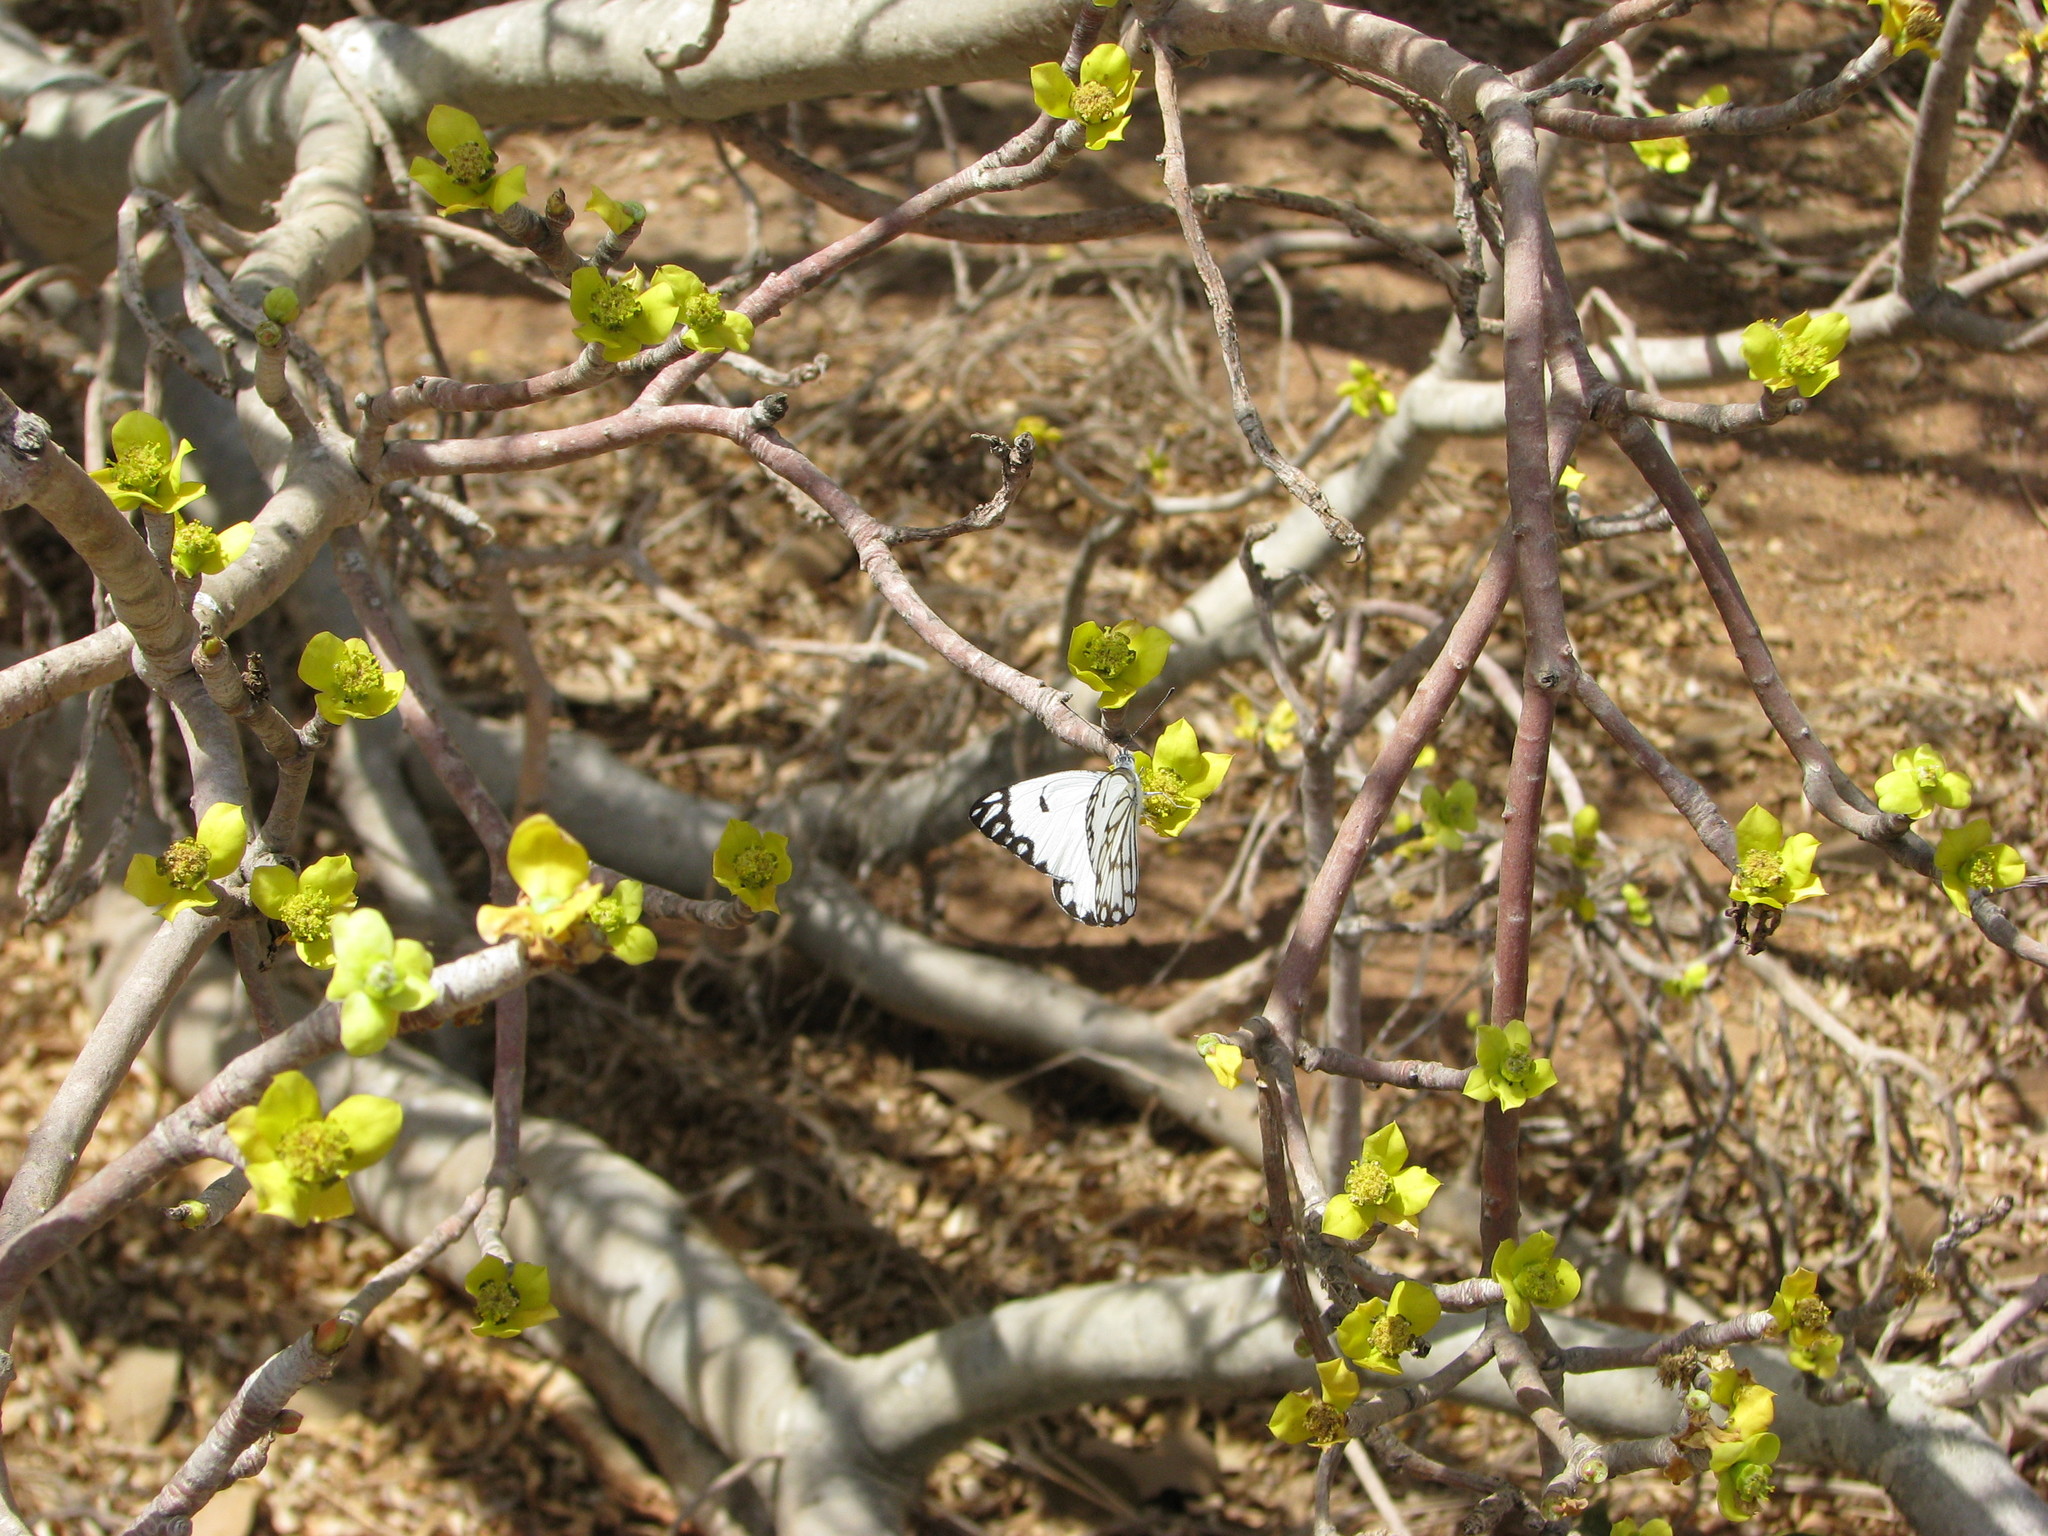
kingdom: Animalia
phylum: Arthropoda
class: Insecta
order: Lepidoptera
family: Pieridae
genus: Belenois
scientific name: Belenois aurota
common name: Brown-veined white
